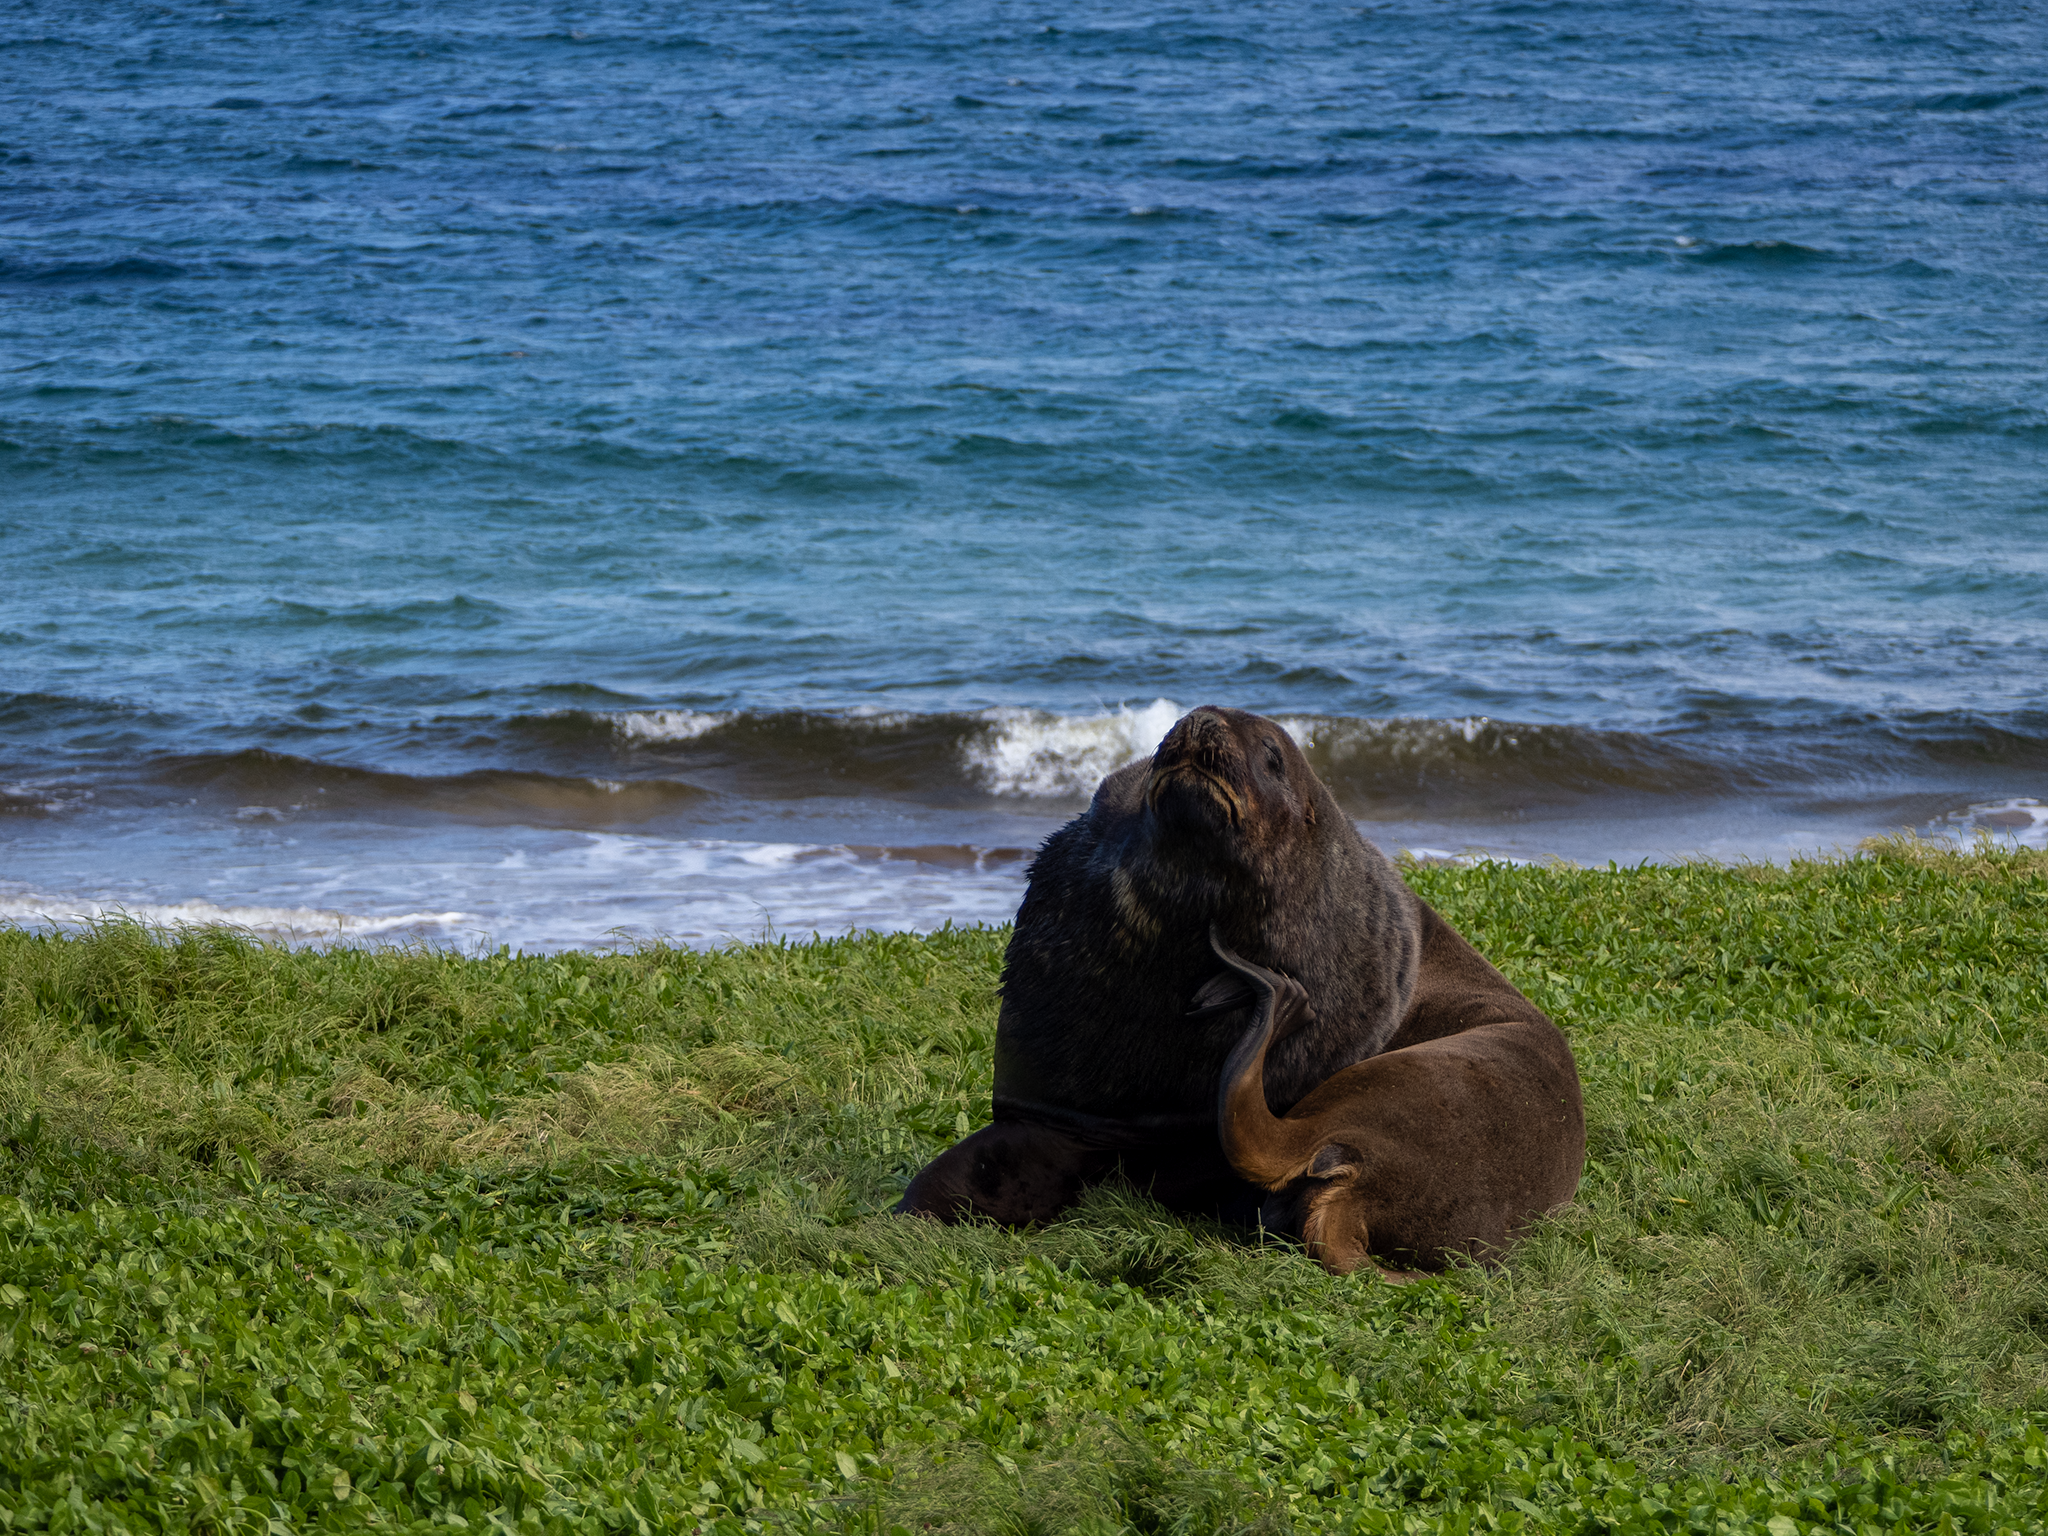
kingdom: Animalia
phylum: Chordata
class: Mammalia
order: Carnivora
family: Otariidae
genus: Phocarctos
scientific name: Phocarctos hookeri
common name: New zealand sea lion
